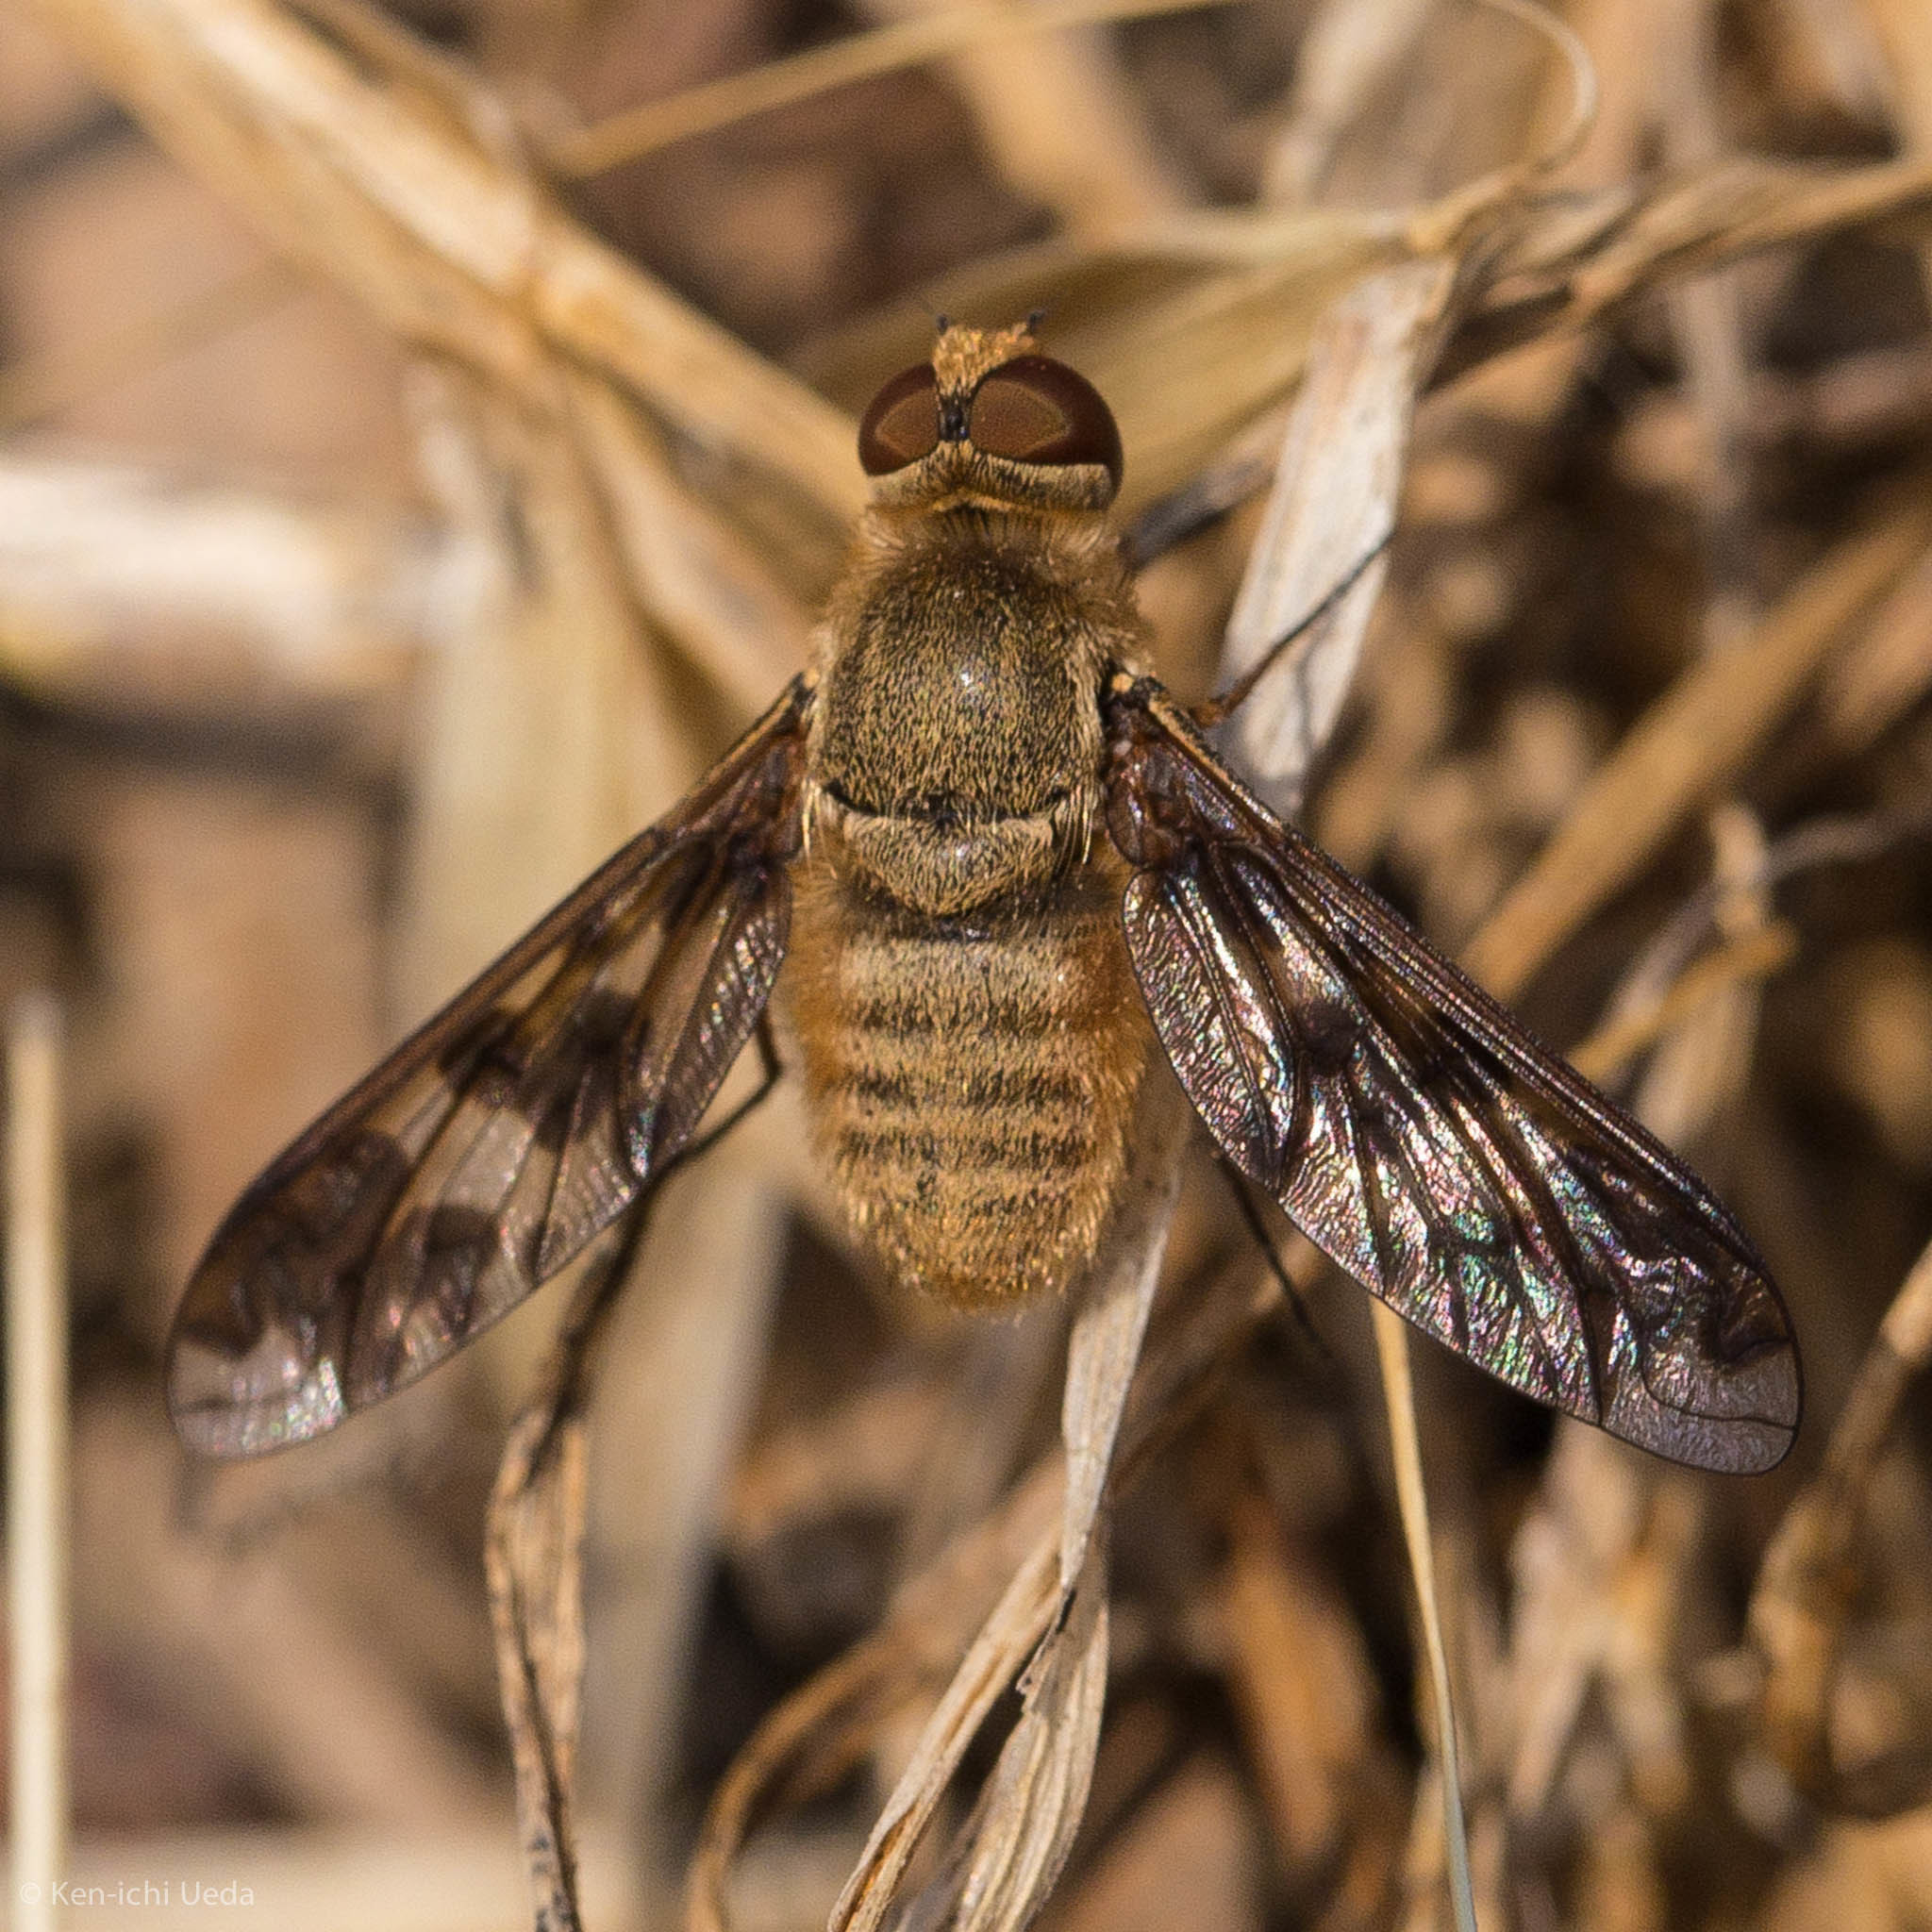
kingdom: Animalia
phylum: Arthropoda
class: Insecta
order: Diptera
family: Bombyliidae
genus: Dipalta
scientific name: Dipalta serpentina
